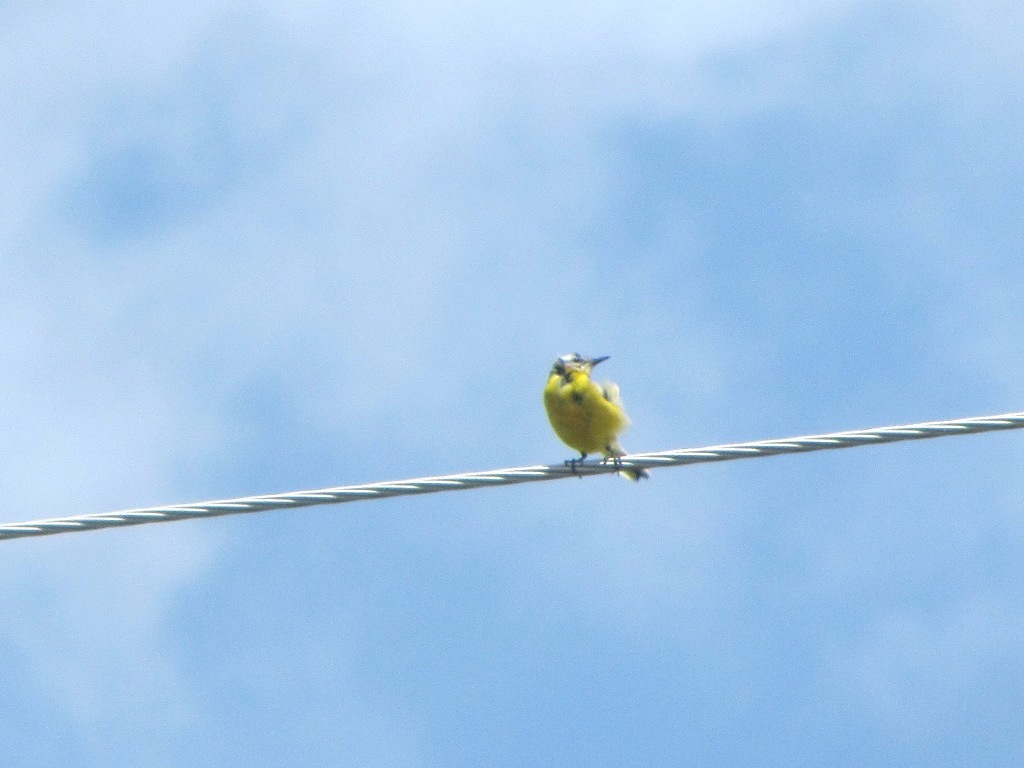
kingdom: Animalia
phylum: Chordata
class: Aves
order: Passeriformes
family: Motacillidae
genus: Motacilla
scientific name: Motacilla flava
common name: Western yellow wagtail
